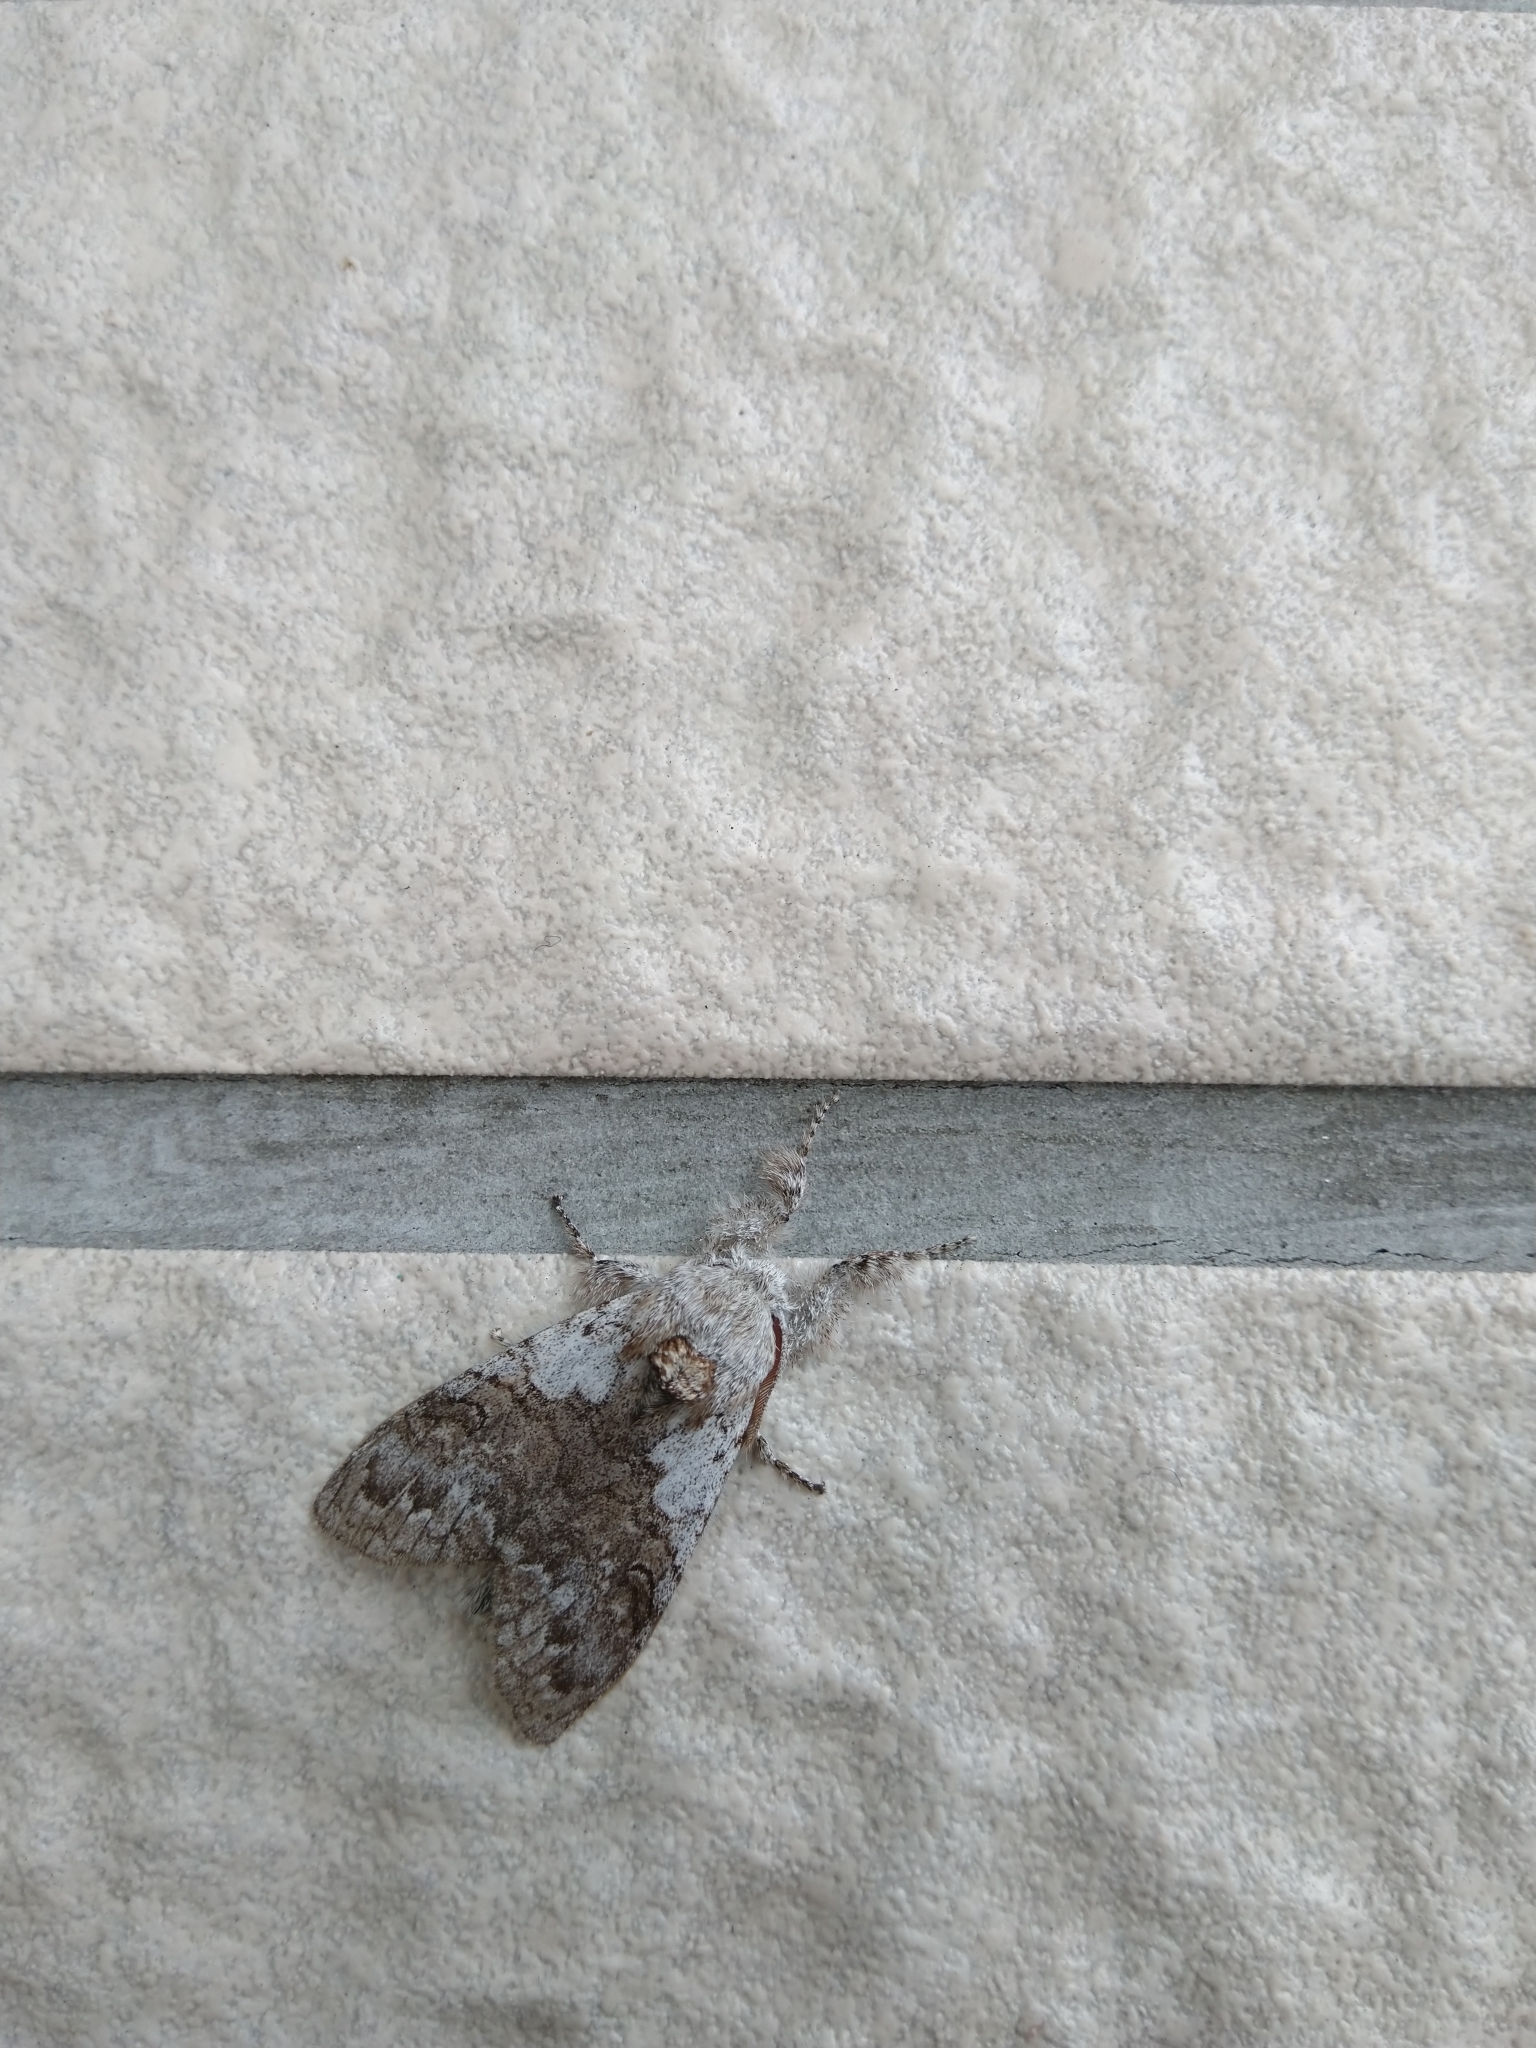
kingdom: Animalia
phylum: Arthropoda
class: Insecta
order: Lepidoptera
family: Erebidae
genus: Calliteara
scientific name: Calliteara grotei
